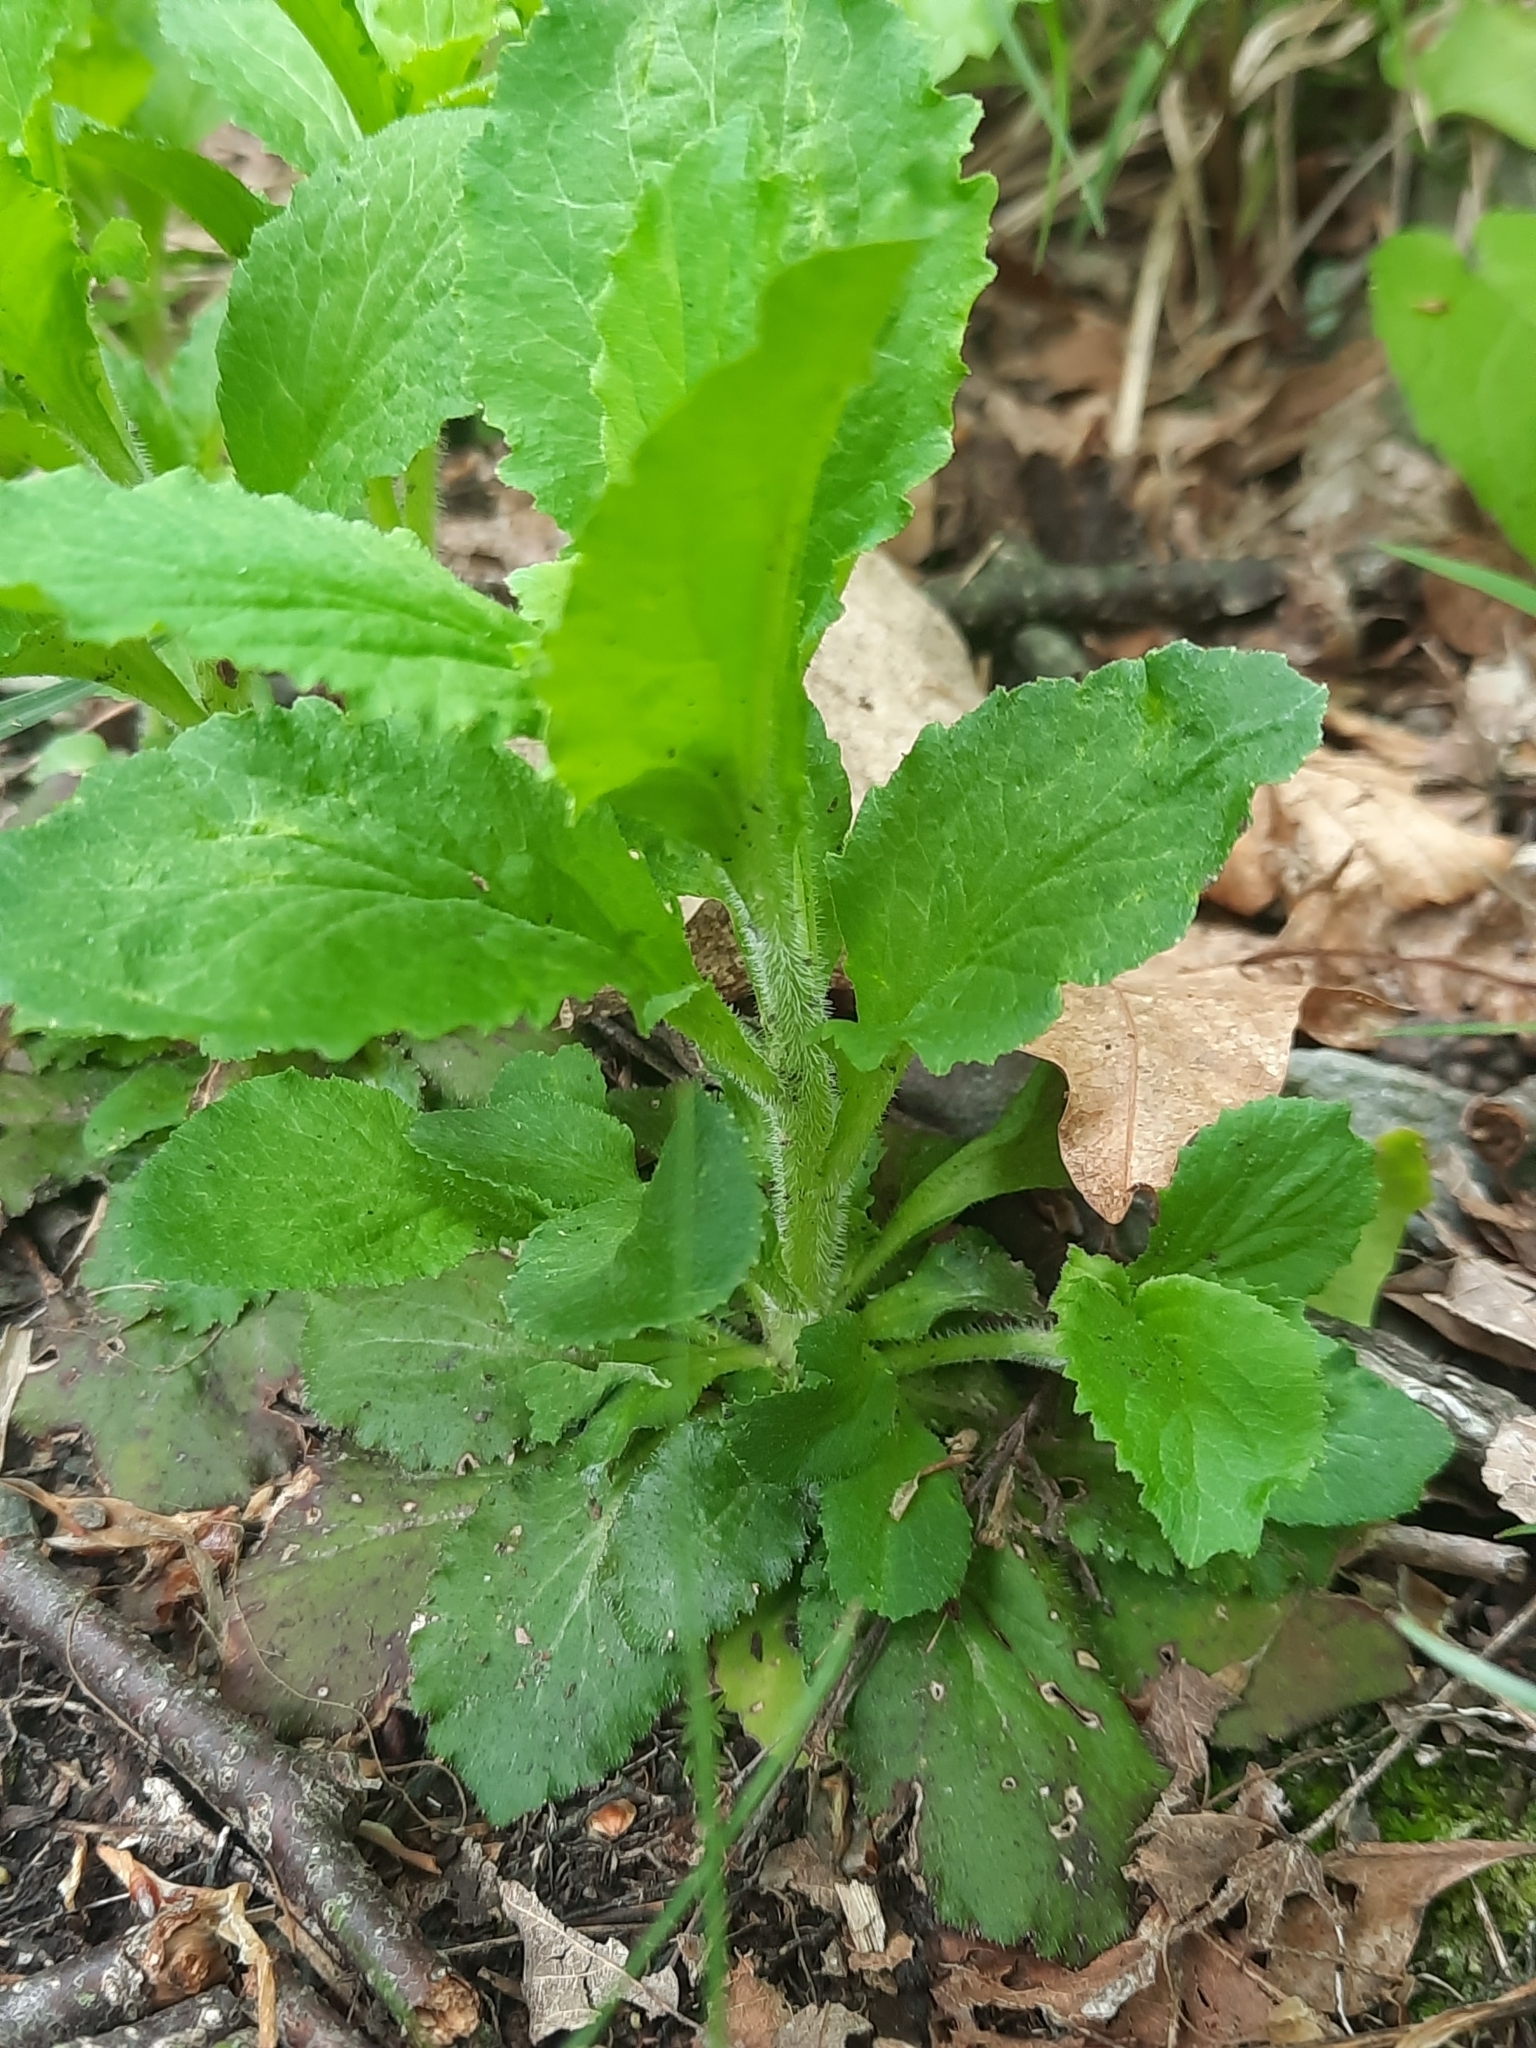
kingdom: Plantae
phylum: Tracheophyta
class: Magnoliopsida
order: Asterales
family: Campanulaceae
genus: Lobelia
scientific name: Lobelia inflata
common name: Indian tobacco
